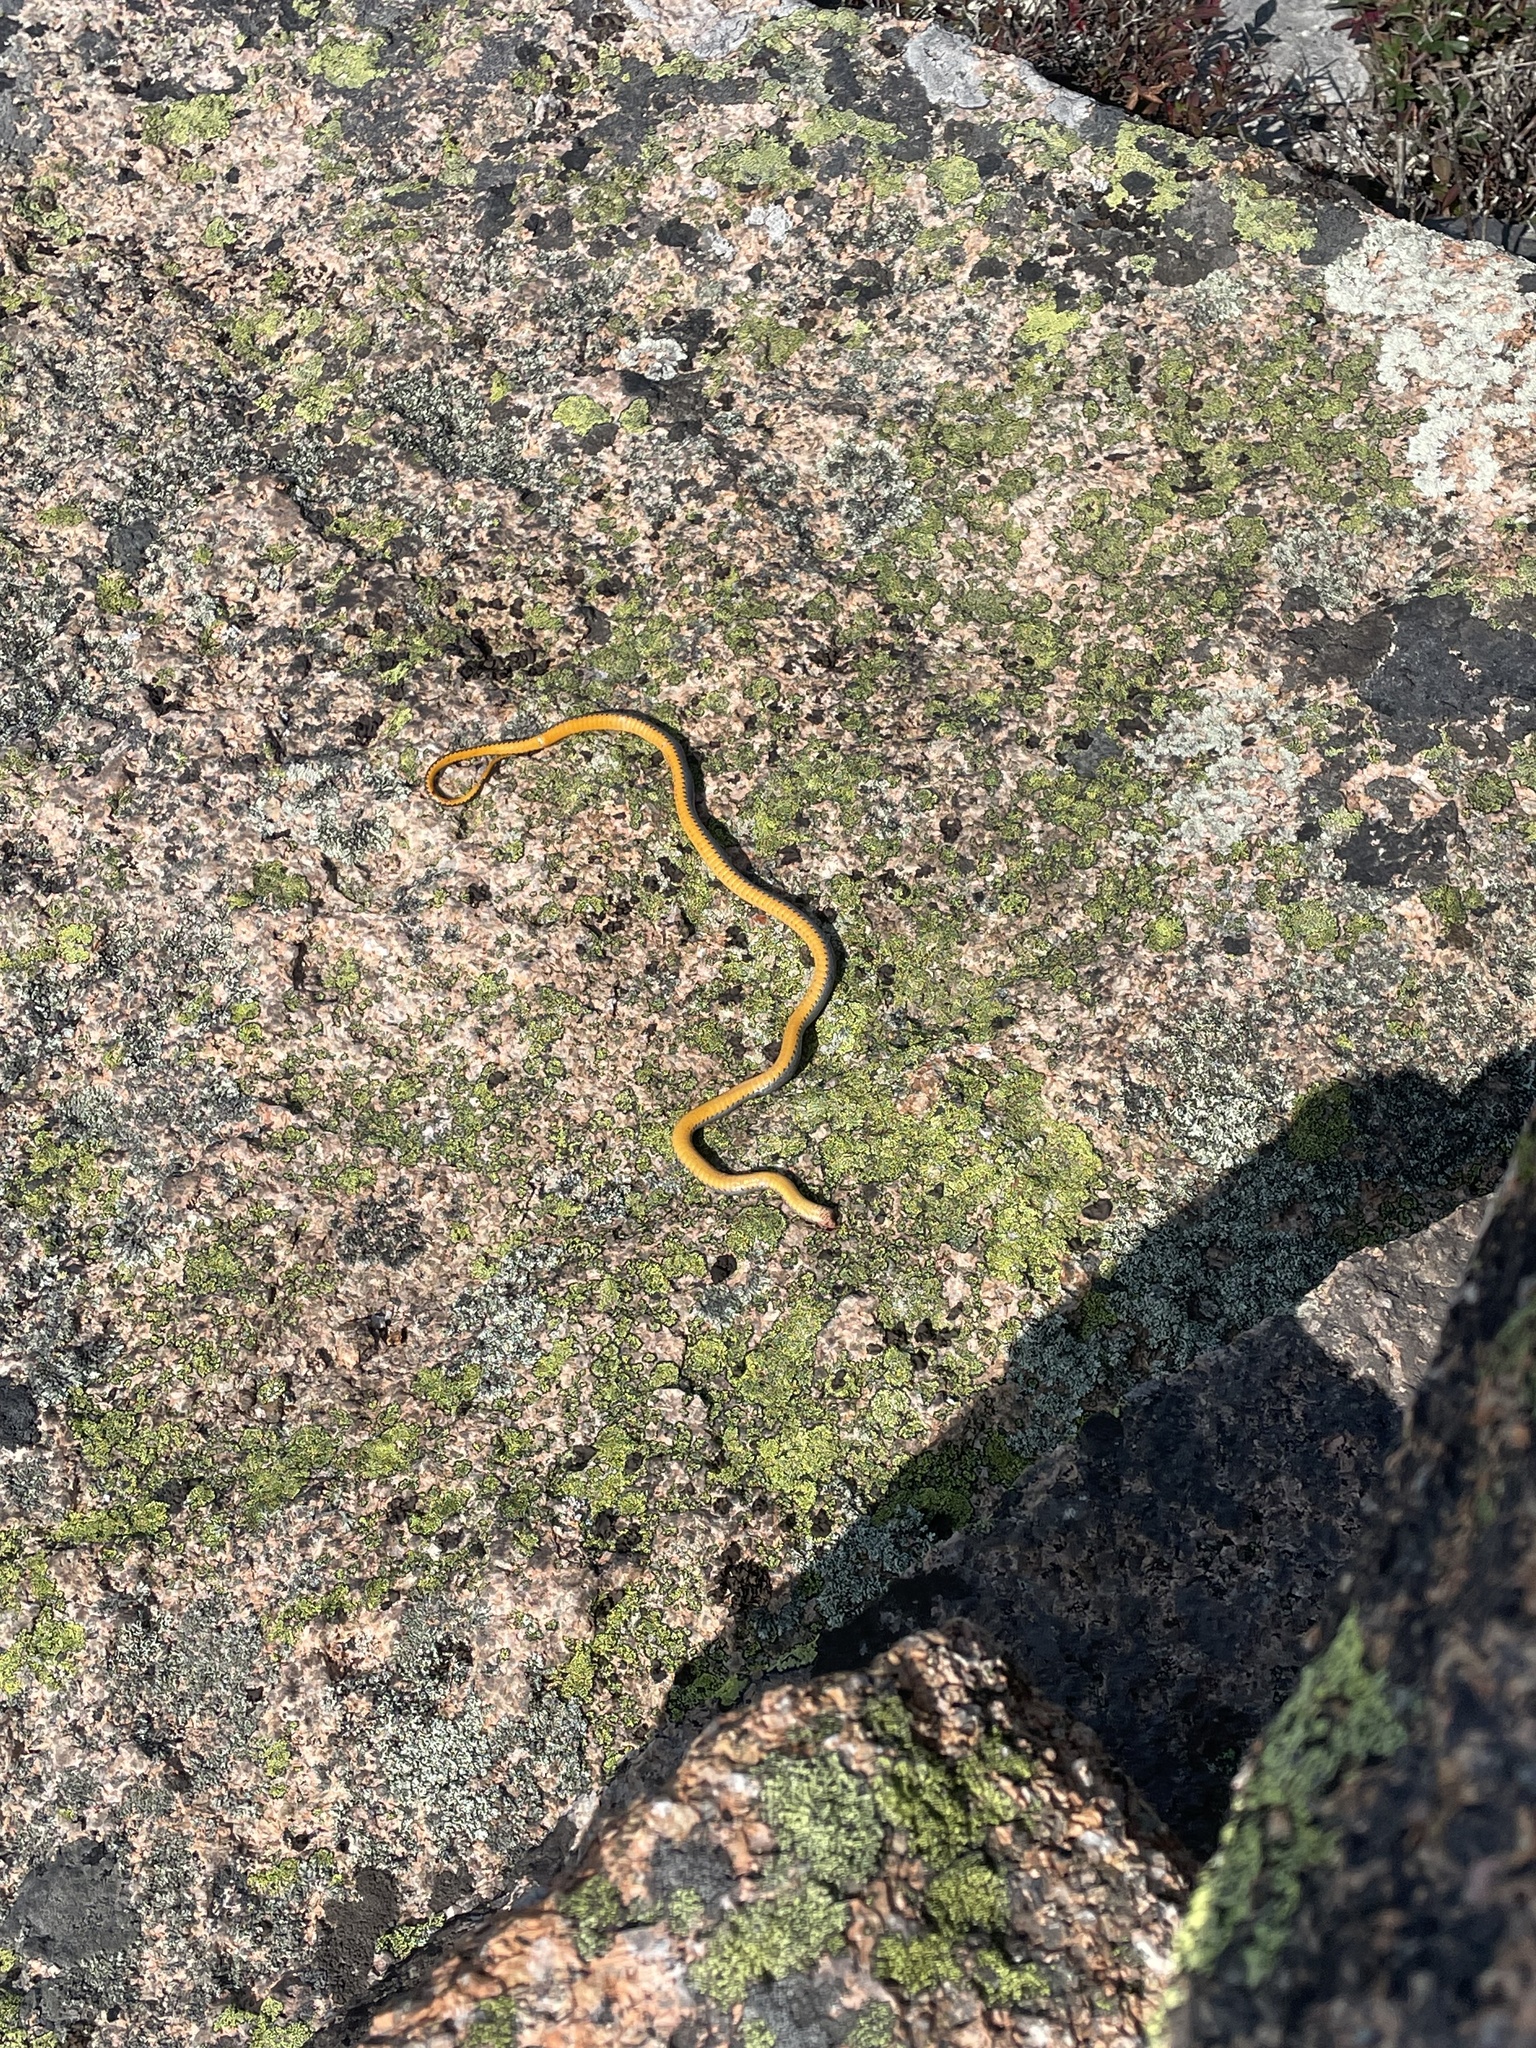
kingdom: Animalia
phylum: Chordata
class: Squamata
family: Colubridae
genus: Diadophis
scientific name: Diadophis punctatus
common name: Ringneck snake
